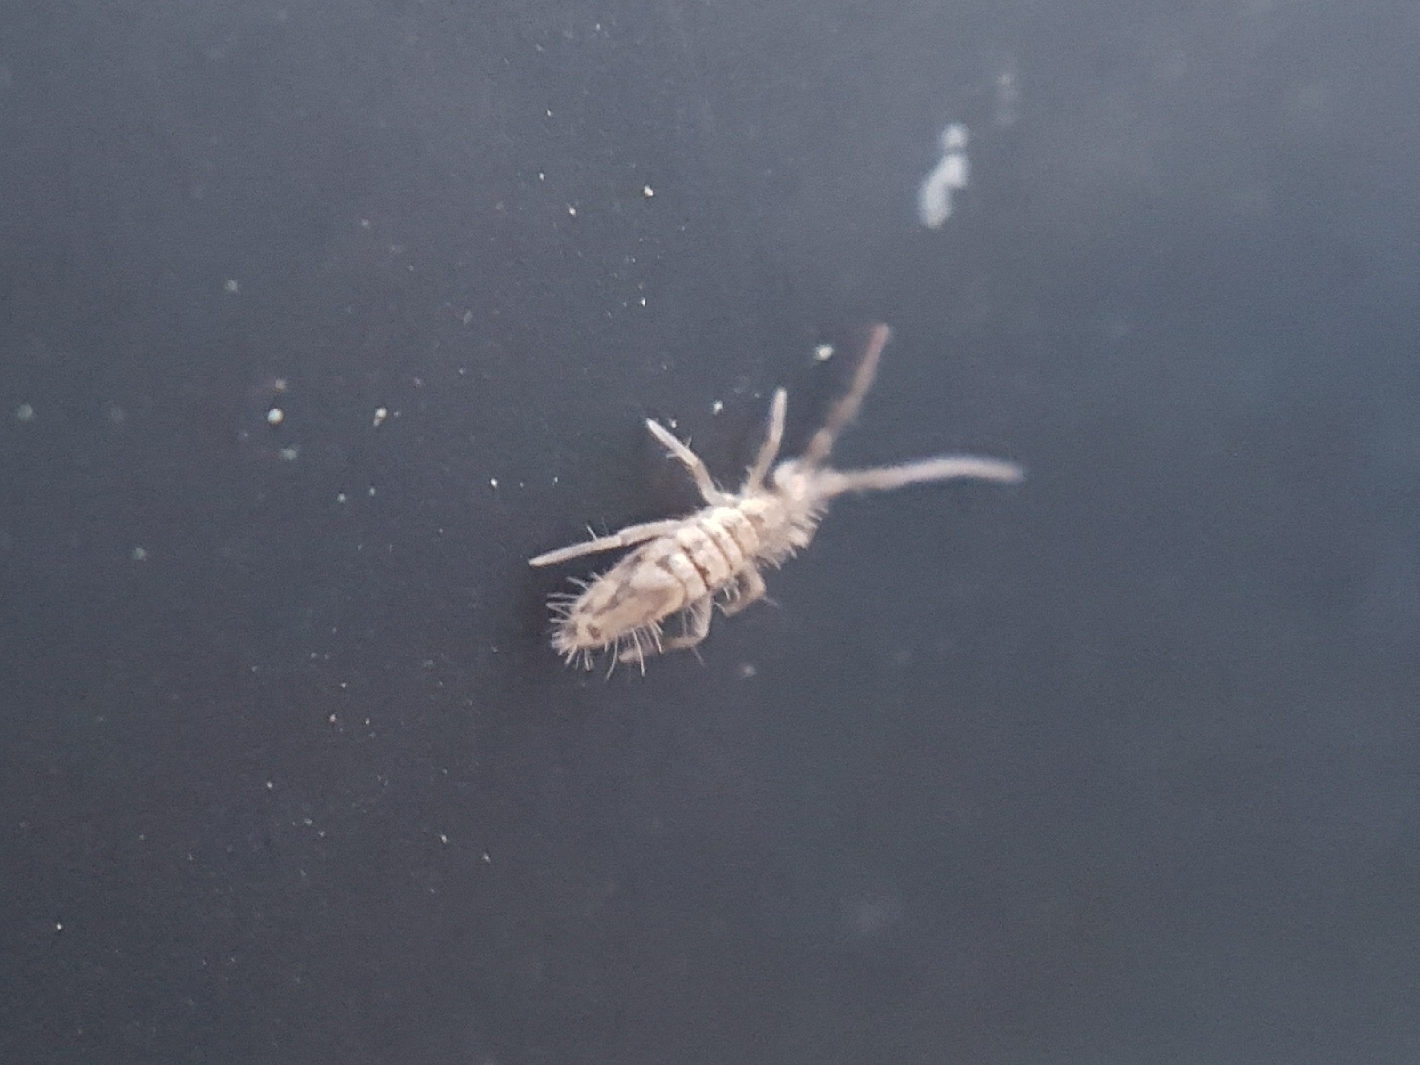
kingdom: Animalia
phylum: Arthropoda
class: Collembola
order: Entomobryomorpha
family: Entomobryidae
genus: Entomobrya
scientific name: Entomobrya katzi
